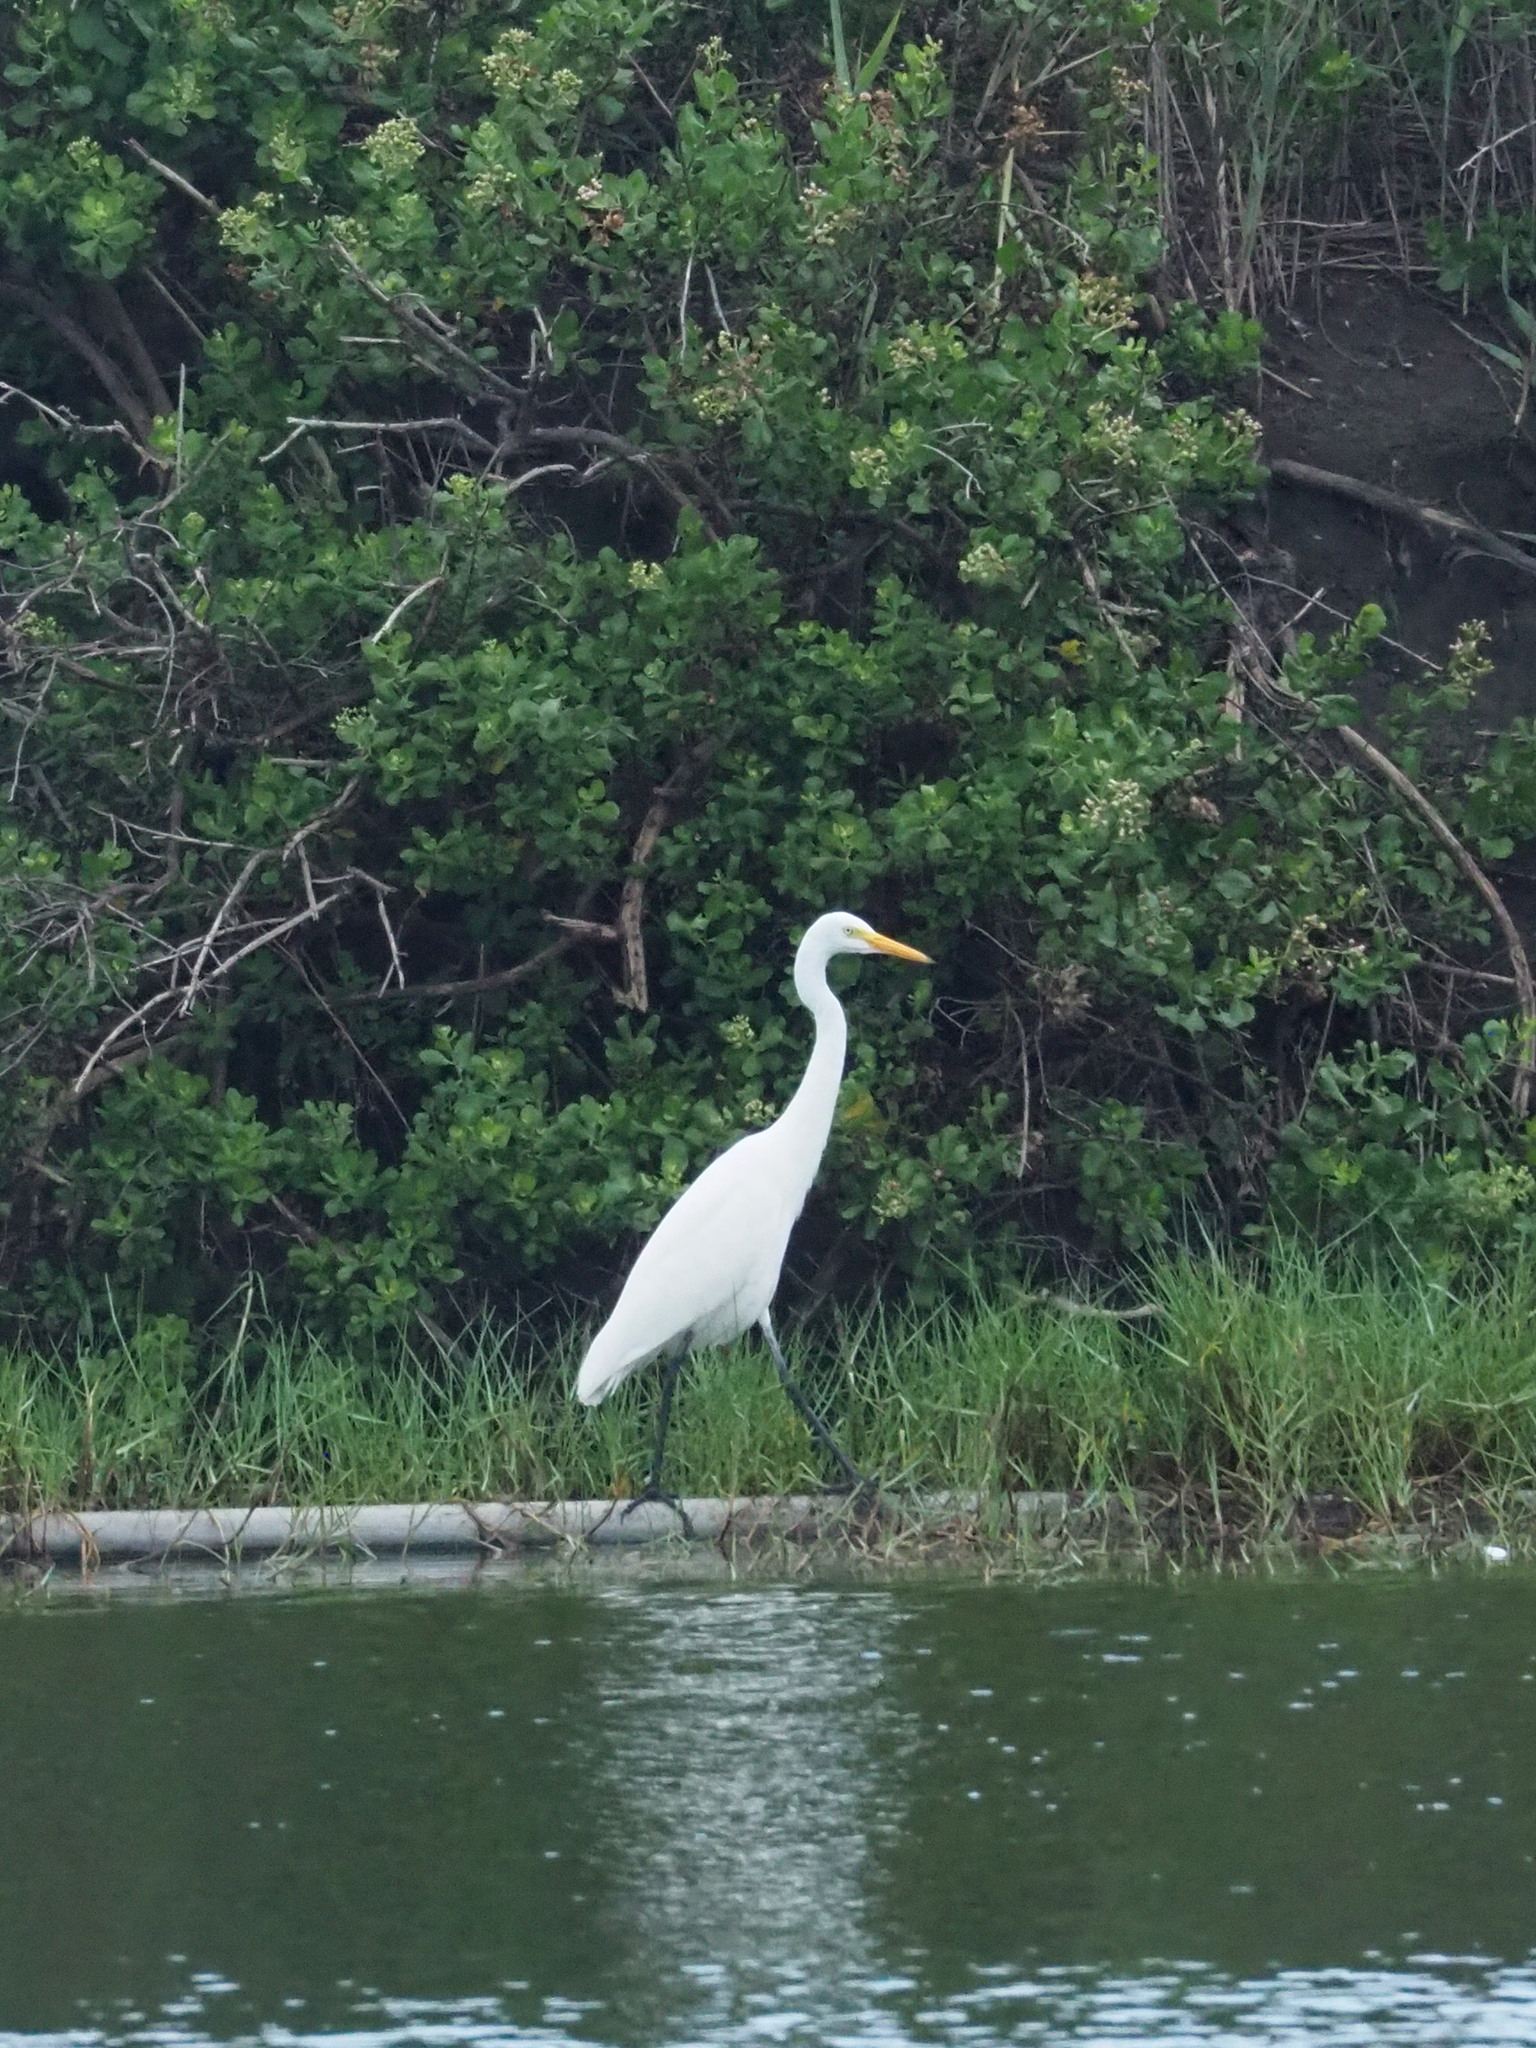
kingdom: Animalia
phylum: Chordata
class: Aves
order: Pelecaniformes
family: Ardeidae
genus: Egretta
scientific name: Egretta intermedia
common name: Intermediate egret
